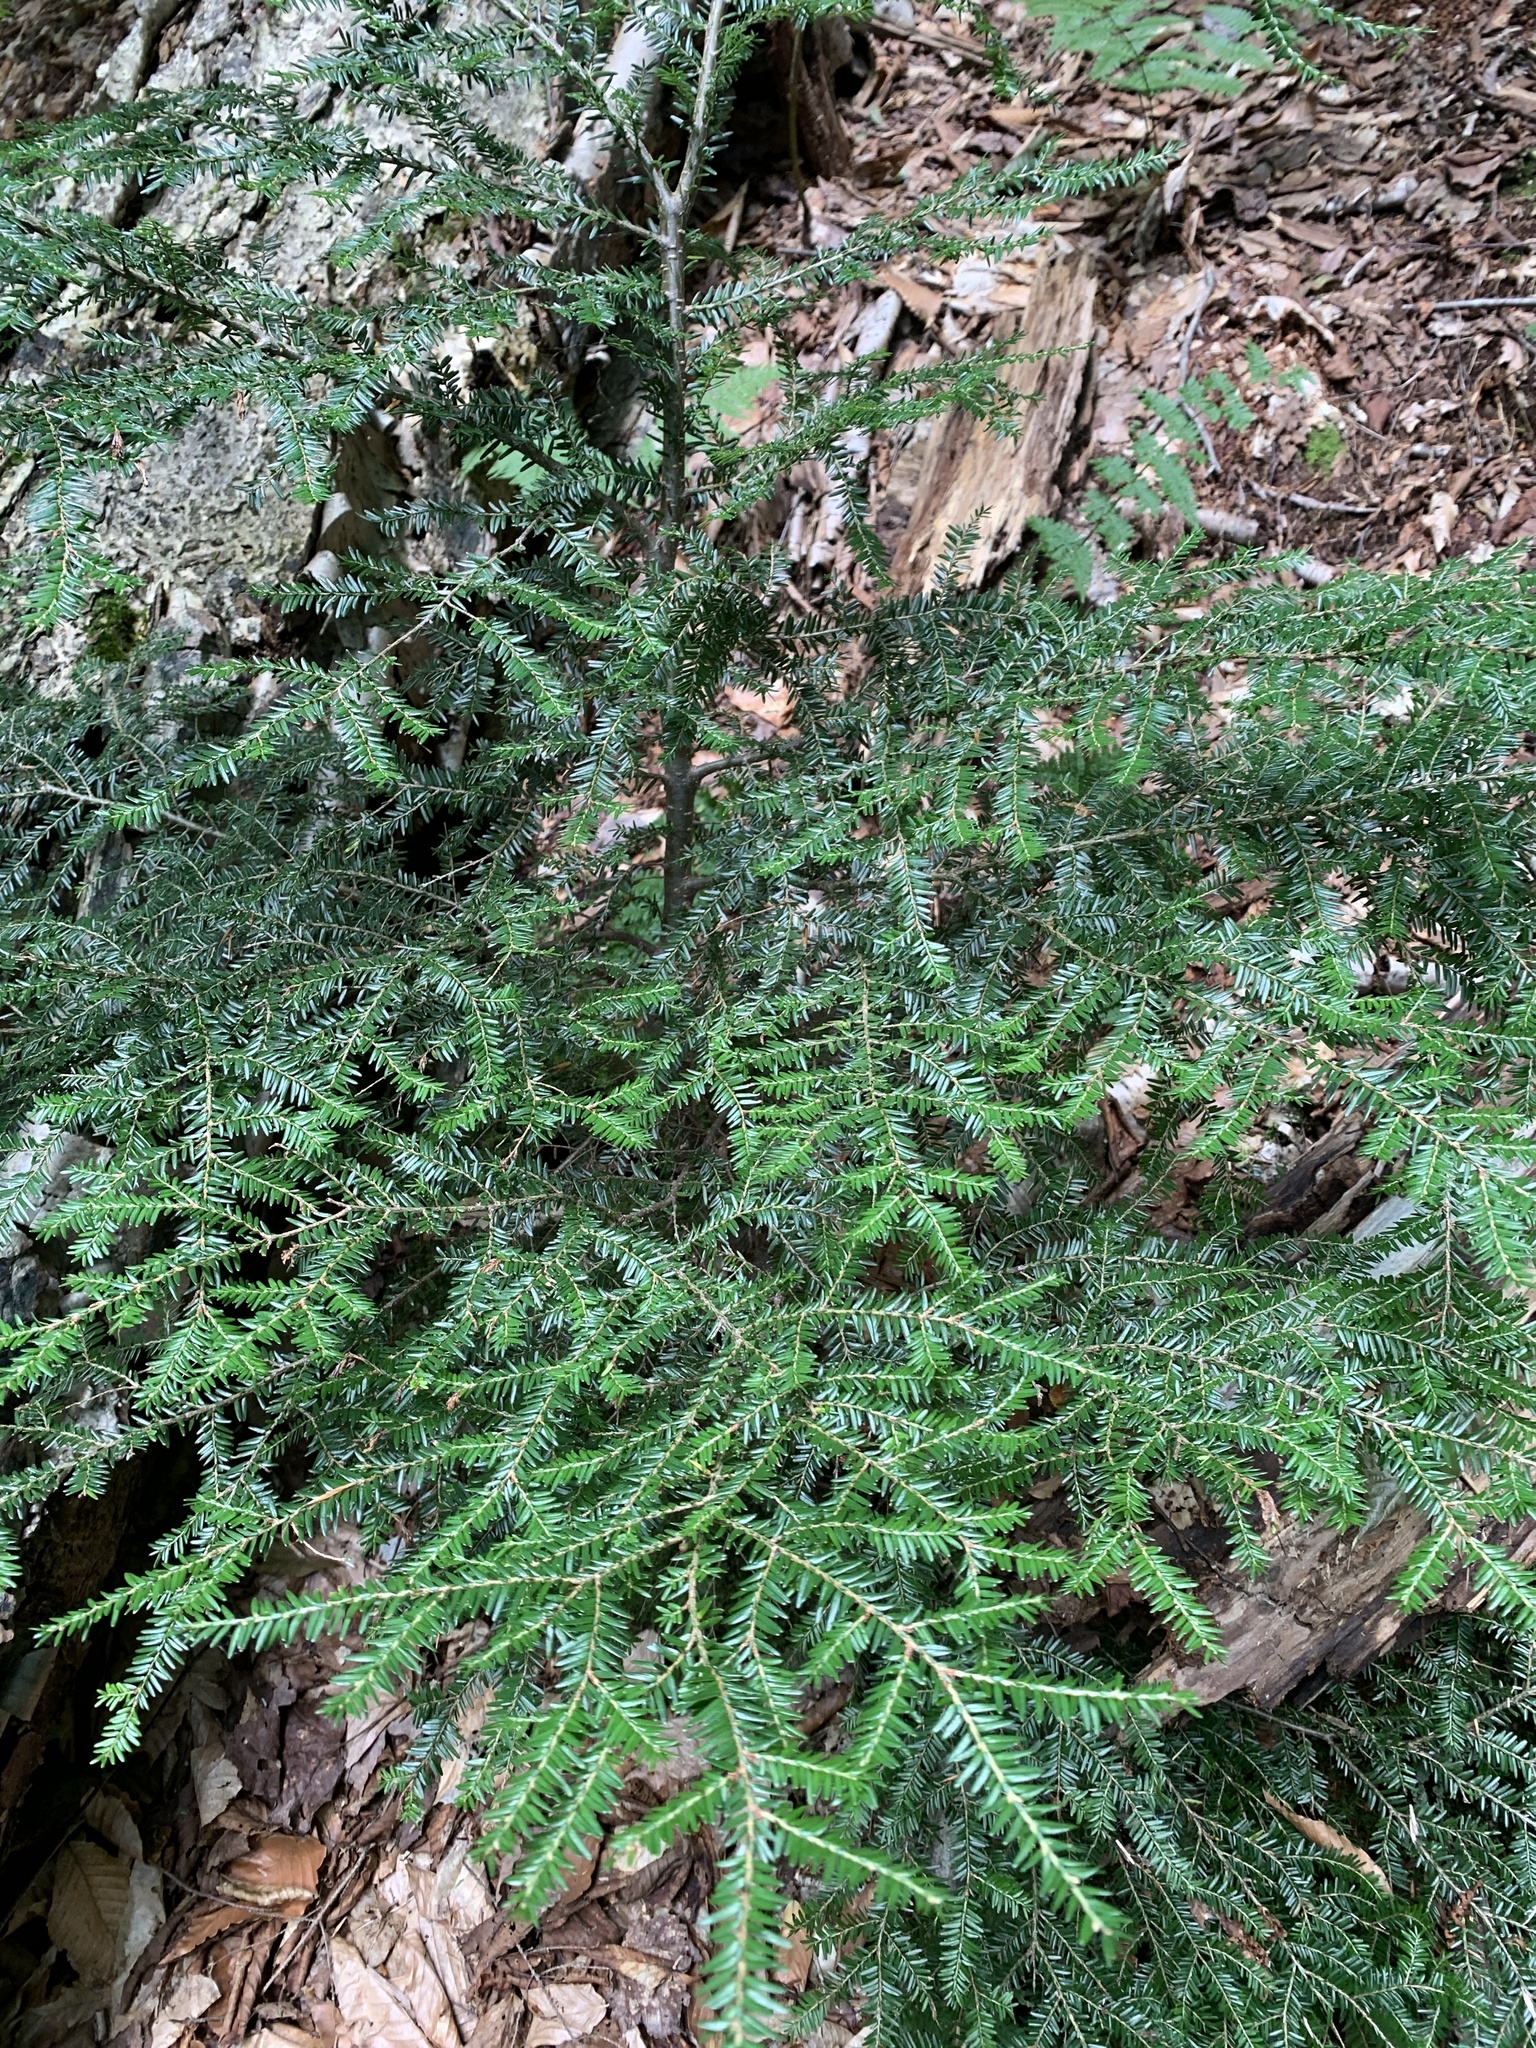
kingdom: Plantae
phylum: Tracheophyta
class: Pinopsida
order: Pinales
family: Pinaceae
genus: Tsuga
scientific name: Tsuga canadensis
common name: Eastern hemlock
